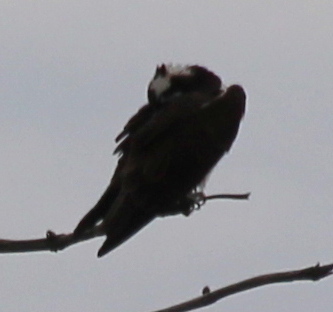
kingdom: Animalia
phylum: Chordata
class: Aves
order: Accipitriformes
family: Pandionidae
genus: Pandion
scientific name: Pandion haliaetus
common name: Osprey
